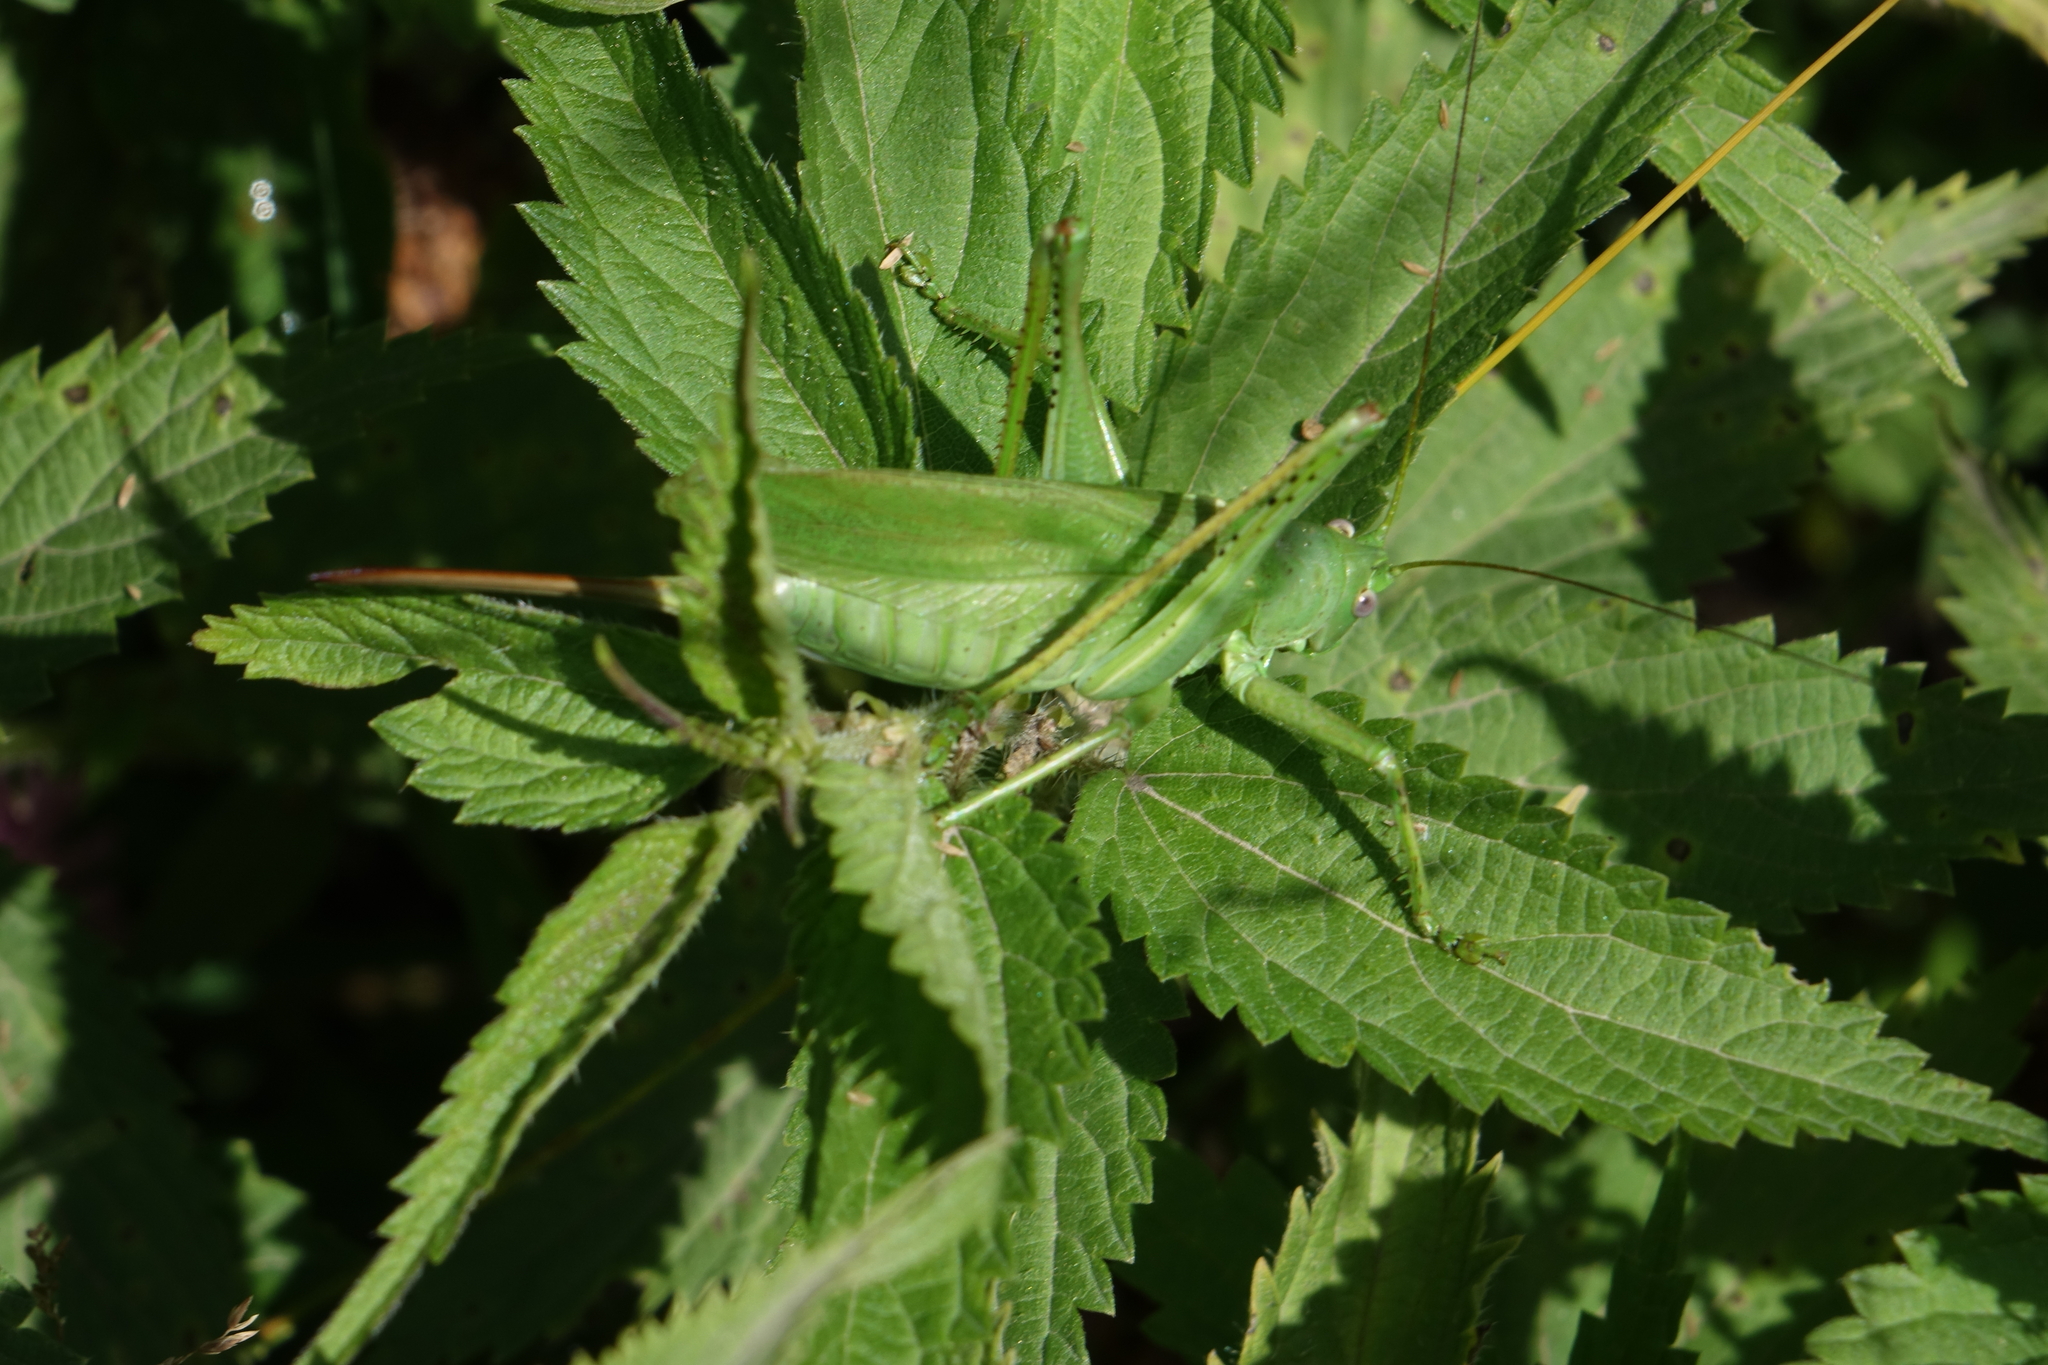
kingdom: Animalia
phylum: Arthropoda
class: Insecta
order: Orthoptera
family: Tettigoniidae
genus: Tettigonia
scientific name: Tettigonia caudata
